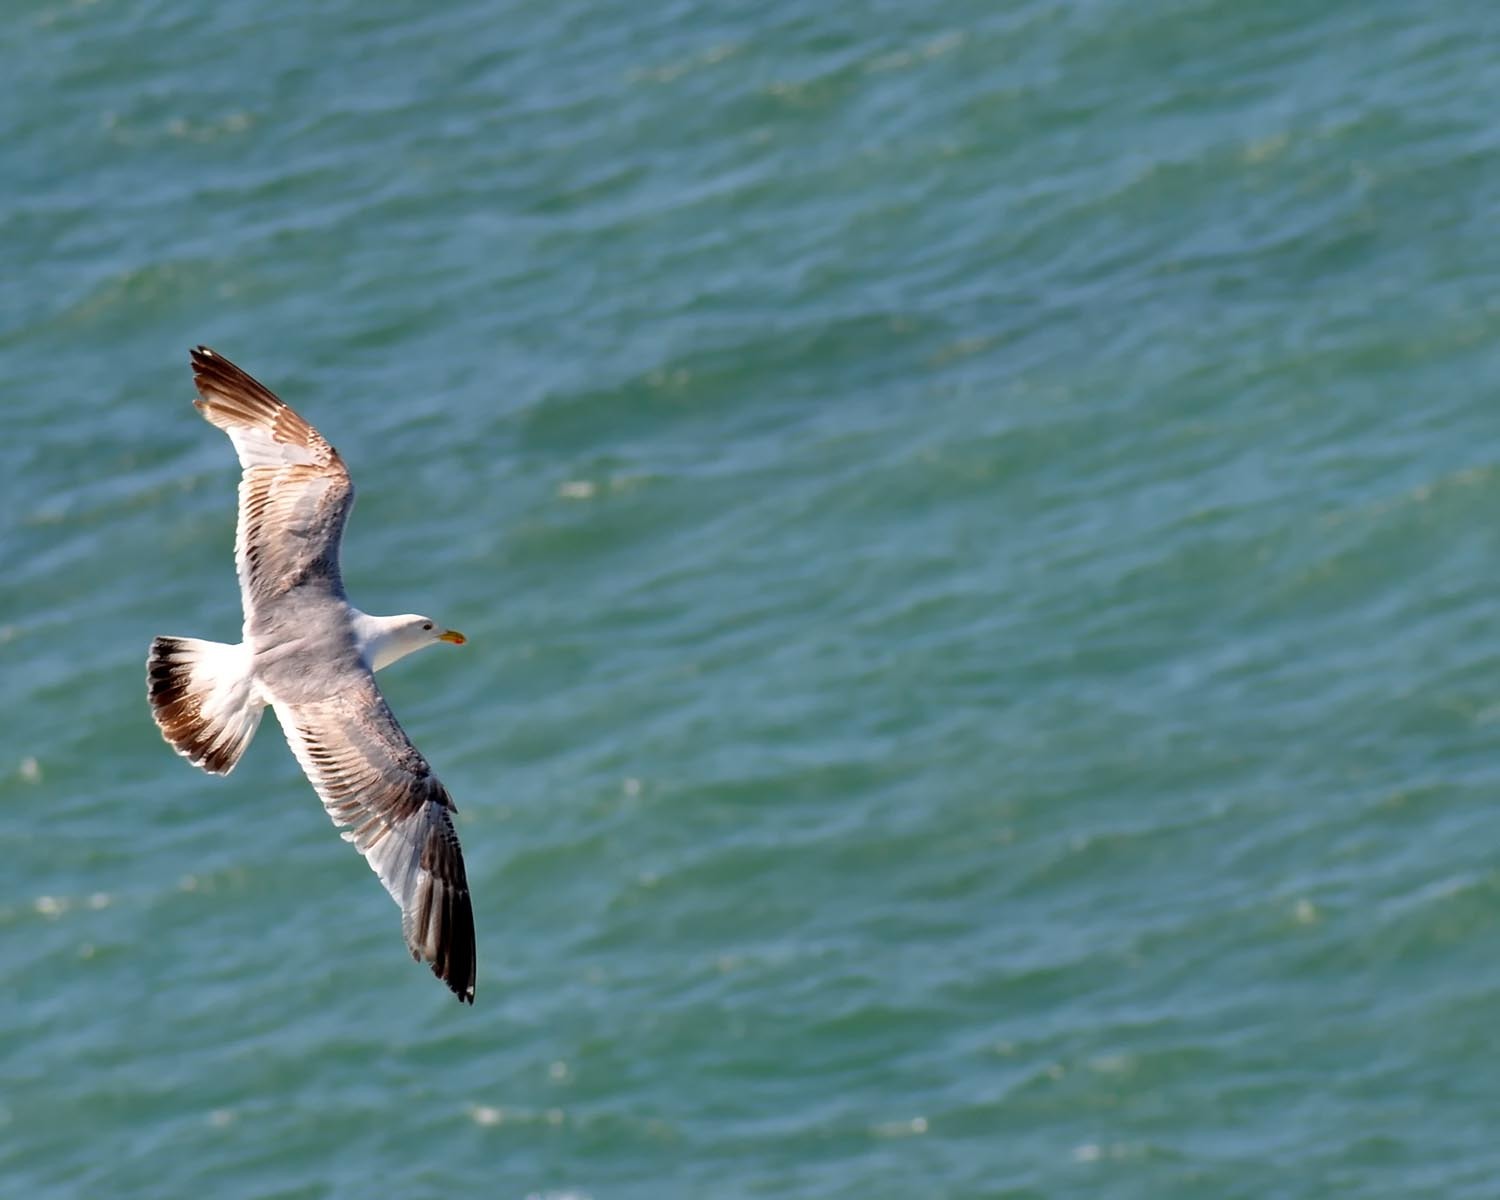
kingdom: Animalia
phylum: Chordata
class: Aves
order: Charadriiformes
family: Laridae
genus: Larus
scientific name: Larus argentatus
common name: Herring gull
